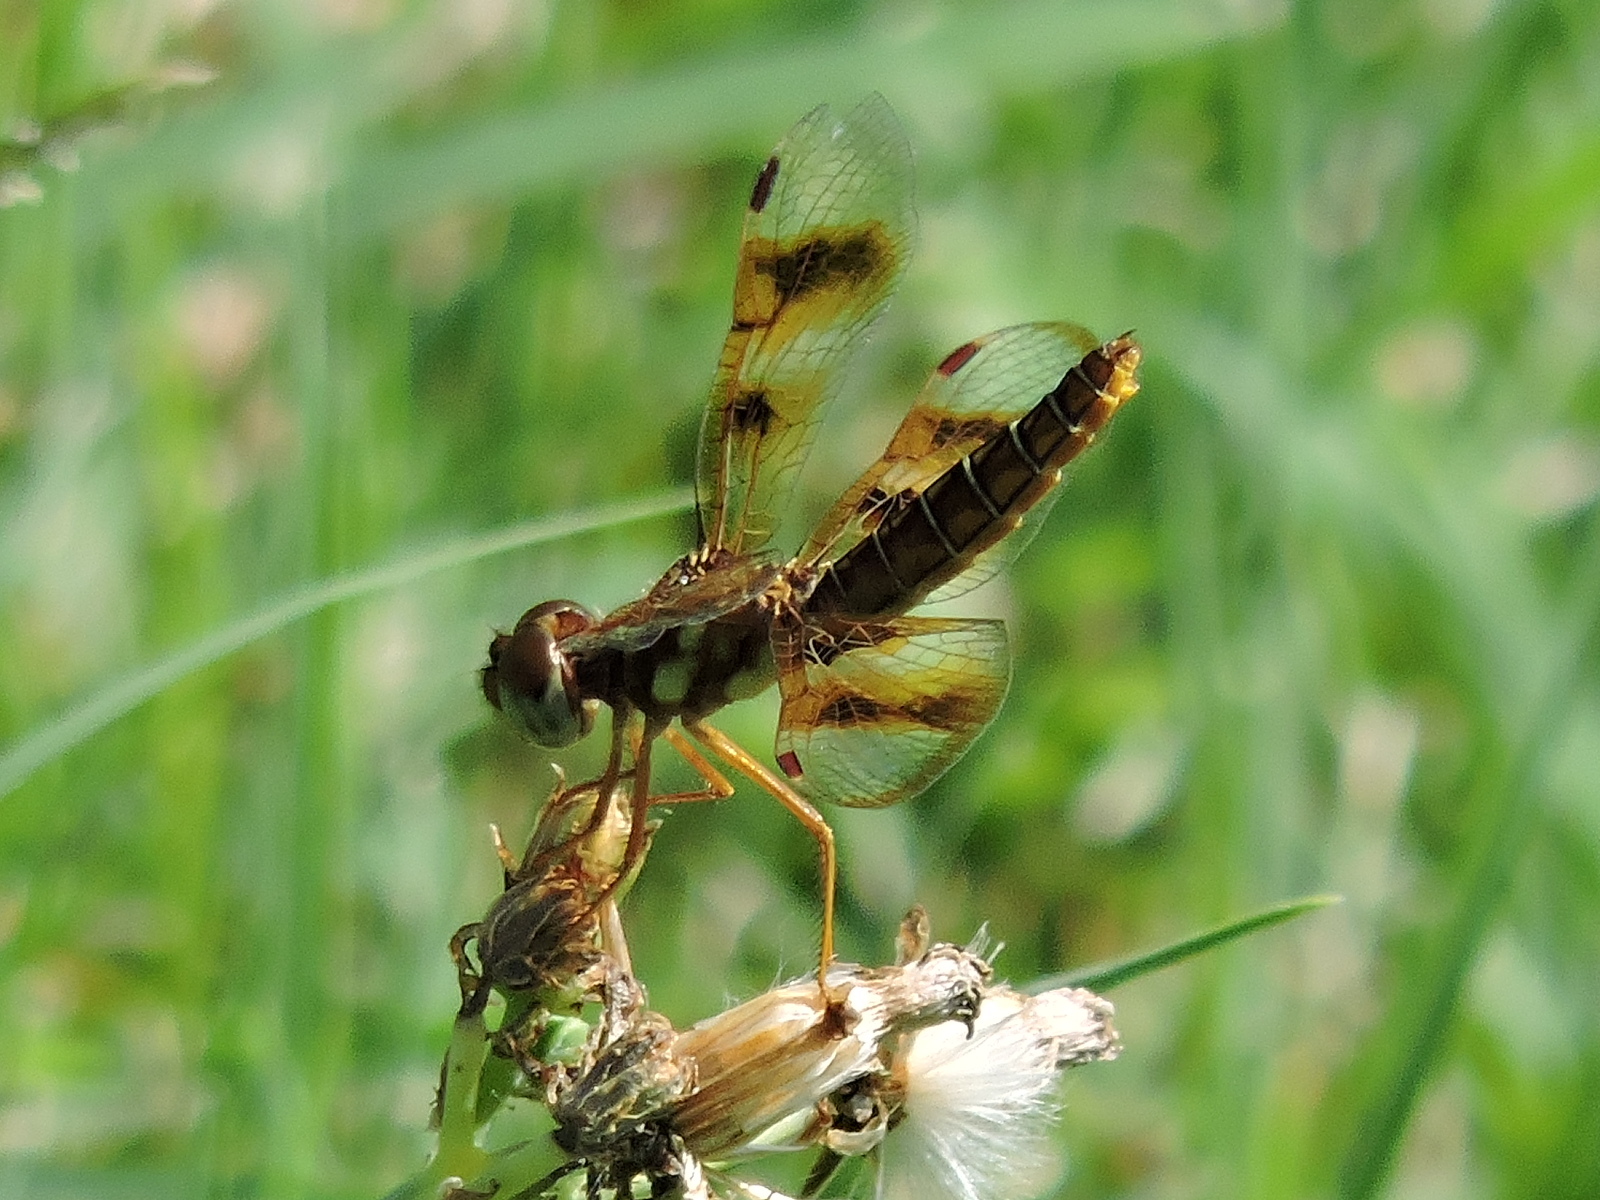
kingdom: Animalia
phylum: Arthropoda
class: Insecta
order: Odonata
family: Libellulidae
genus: Perithemis
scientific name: Perithemis tenera
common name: Eastern amberwing
